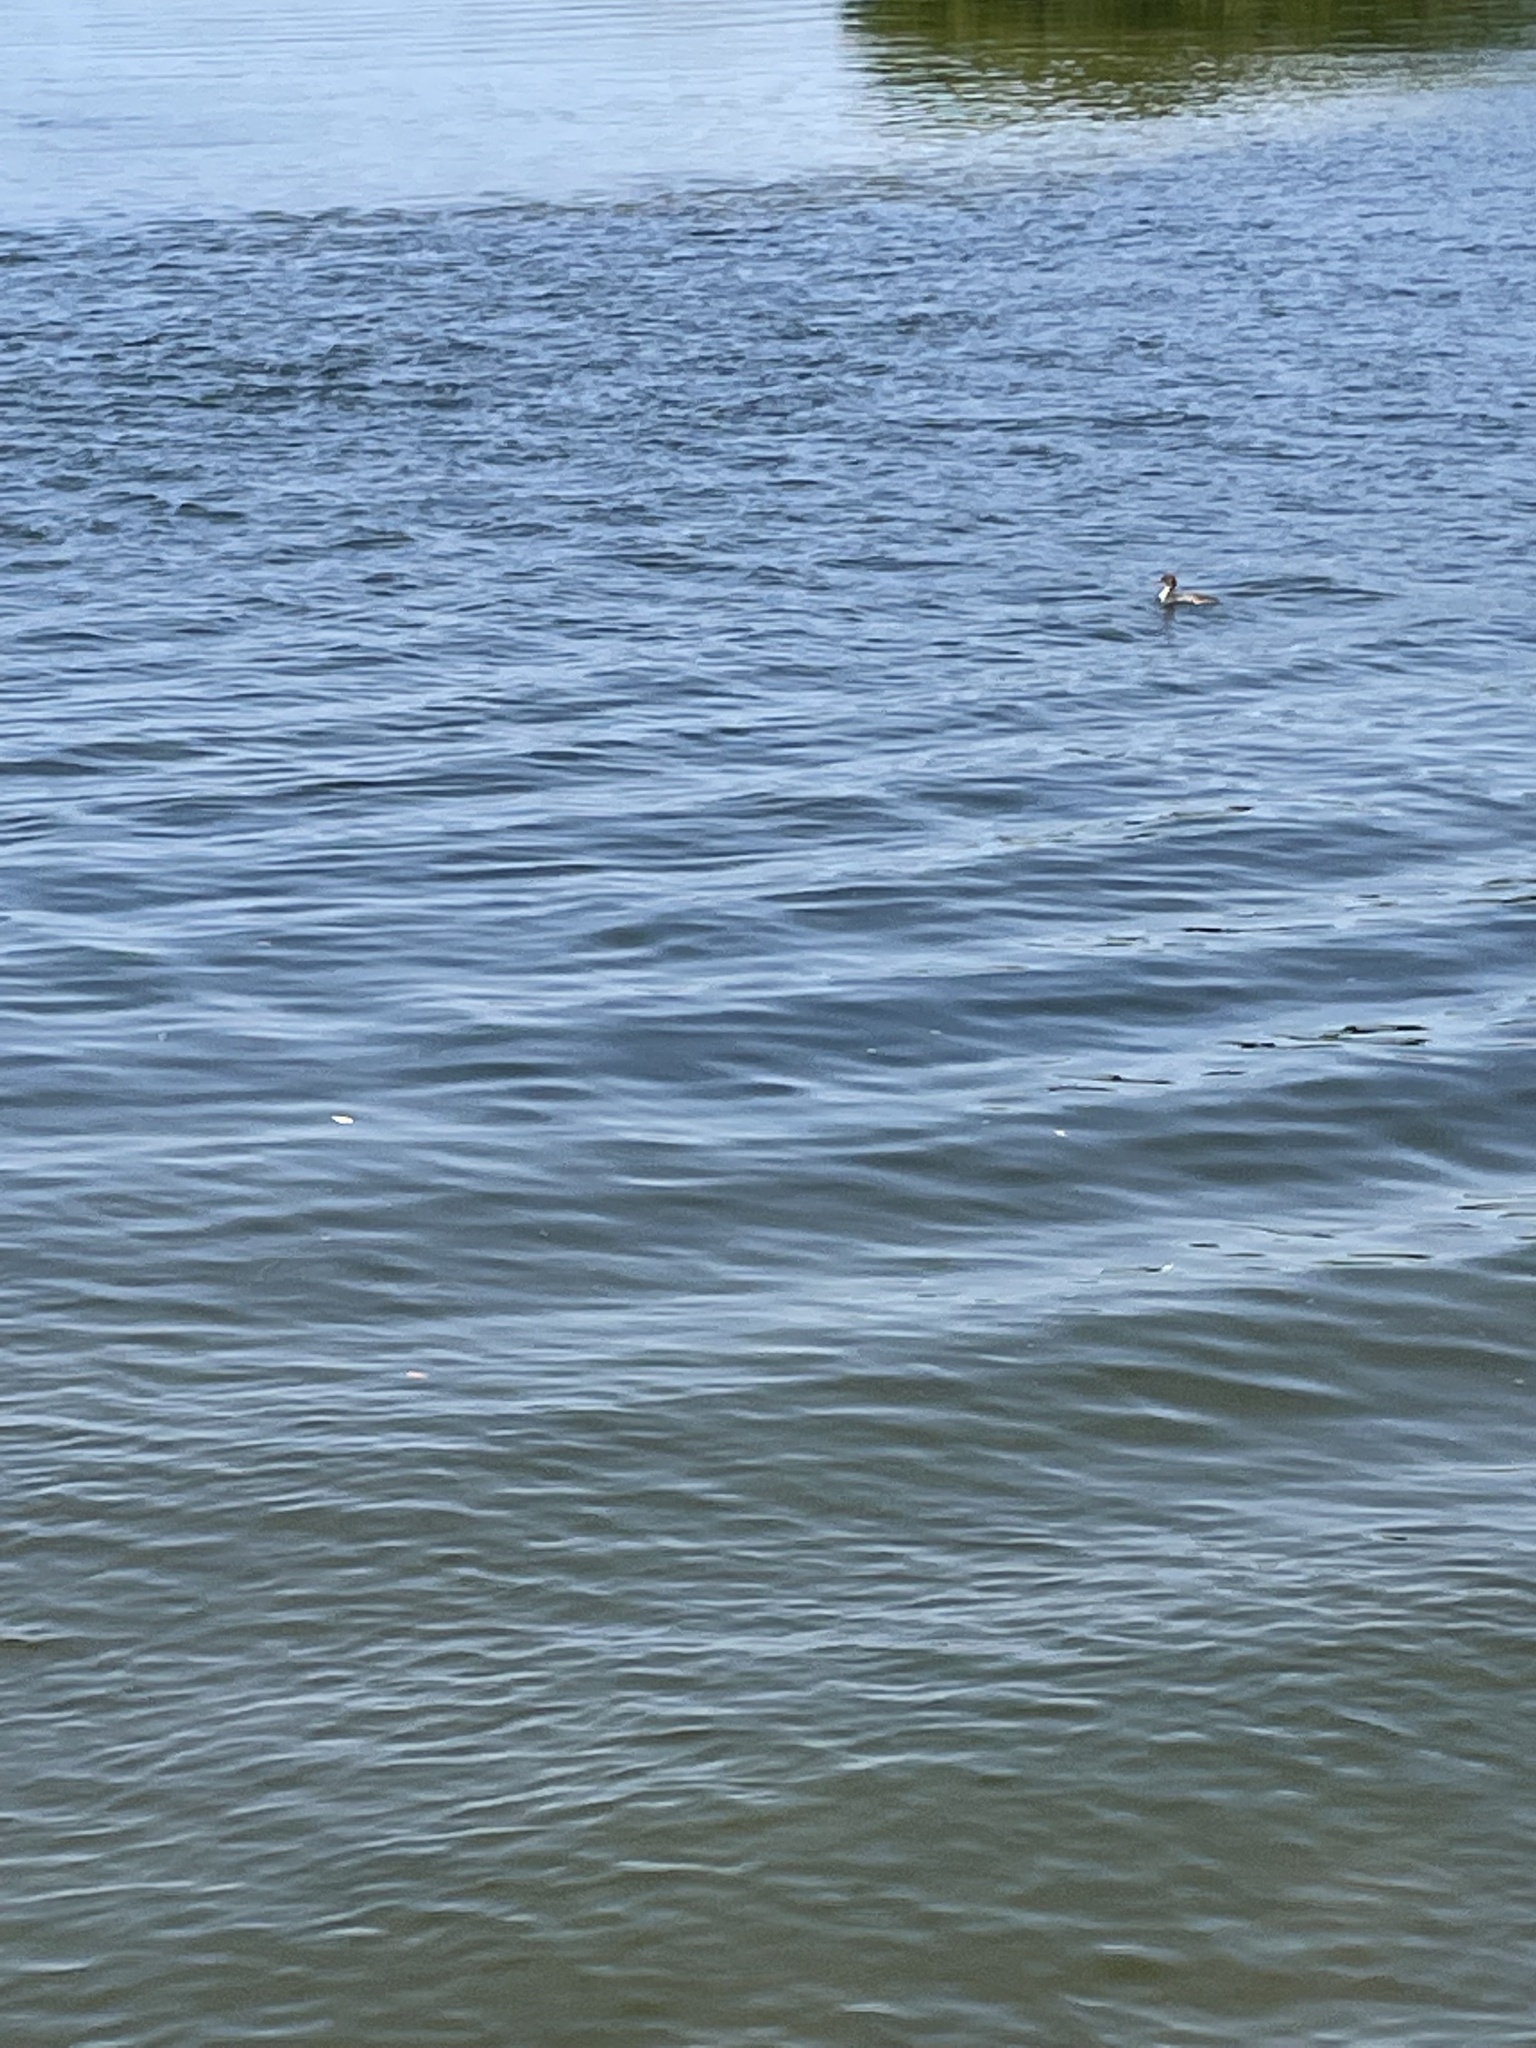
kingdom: Animalia
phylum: Chordata
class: Aves
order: Anseriformes
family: Anatidae
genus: Mergus
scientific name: Mergus serrator
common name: Red-breasted merganser
